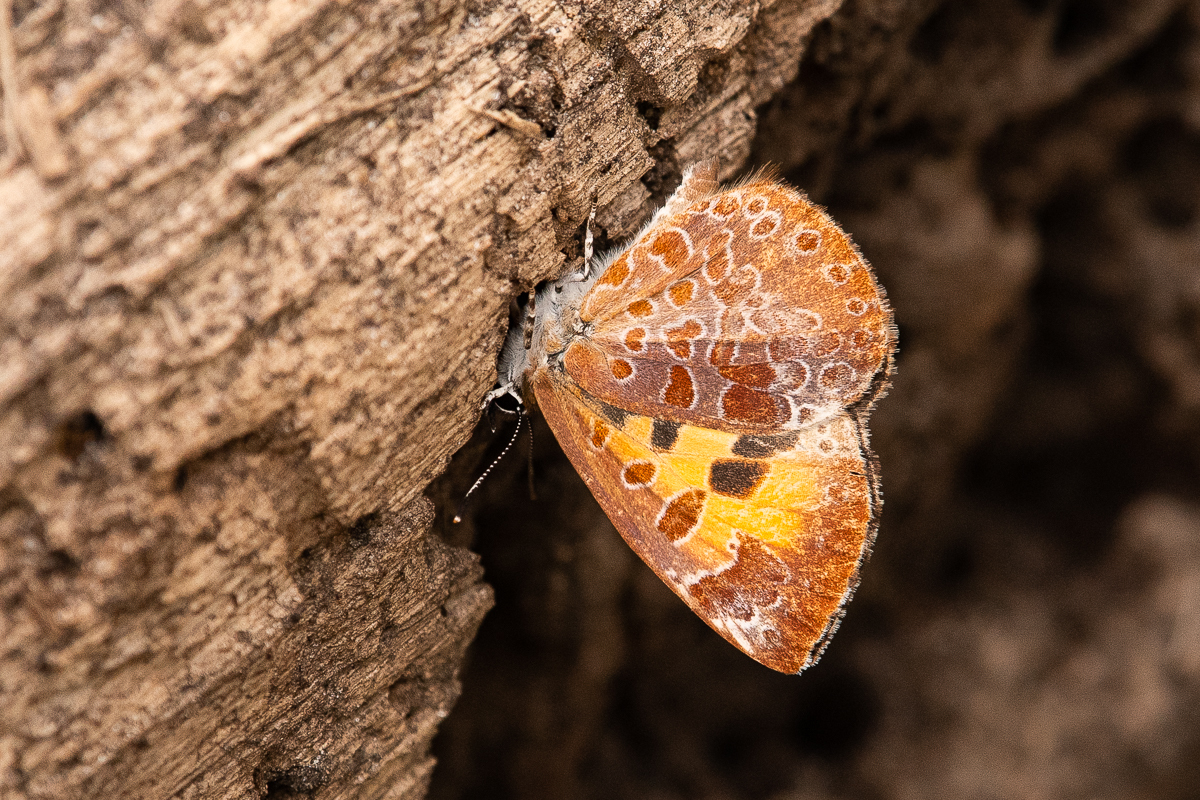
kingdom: Animalia
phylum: Arthropoda
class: Insecta
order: Lepidoptera
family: Lycaenidae
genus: Feniseca
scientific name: Feniseca tarquinius
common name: Harvester
